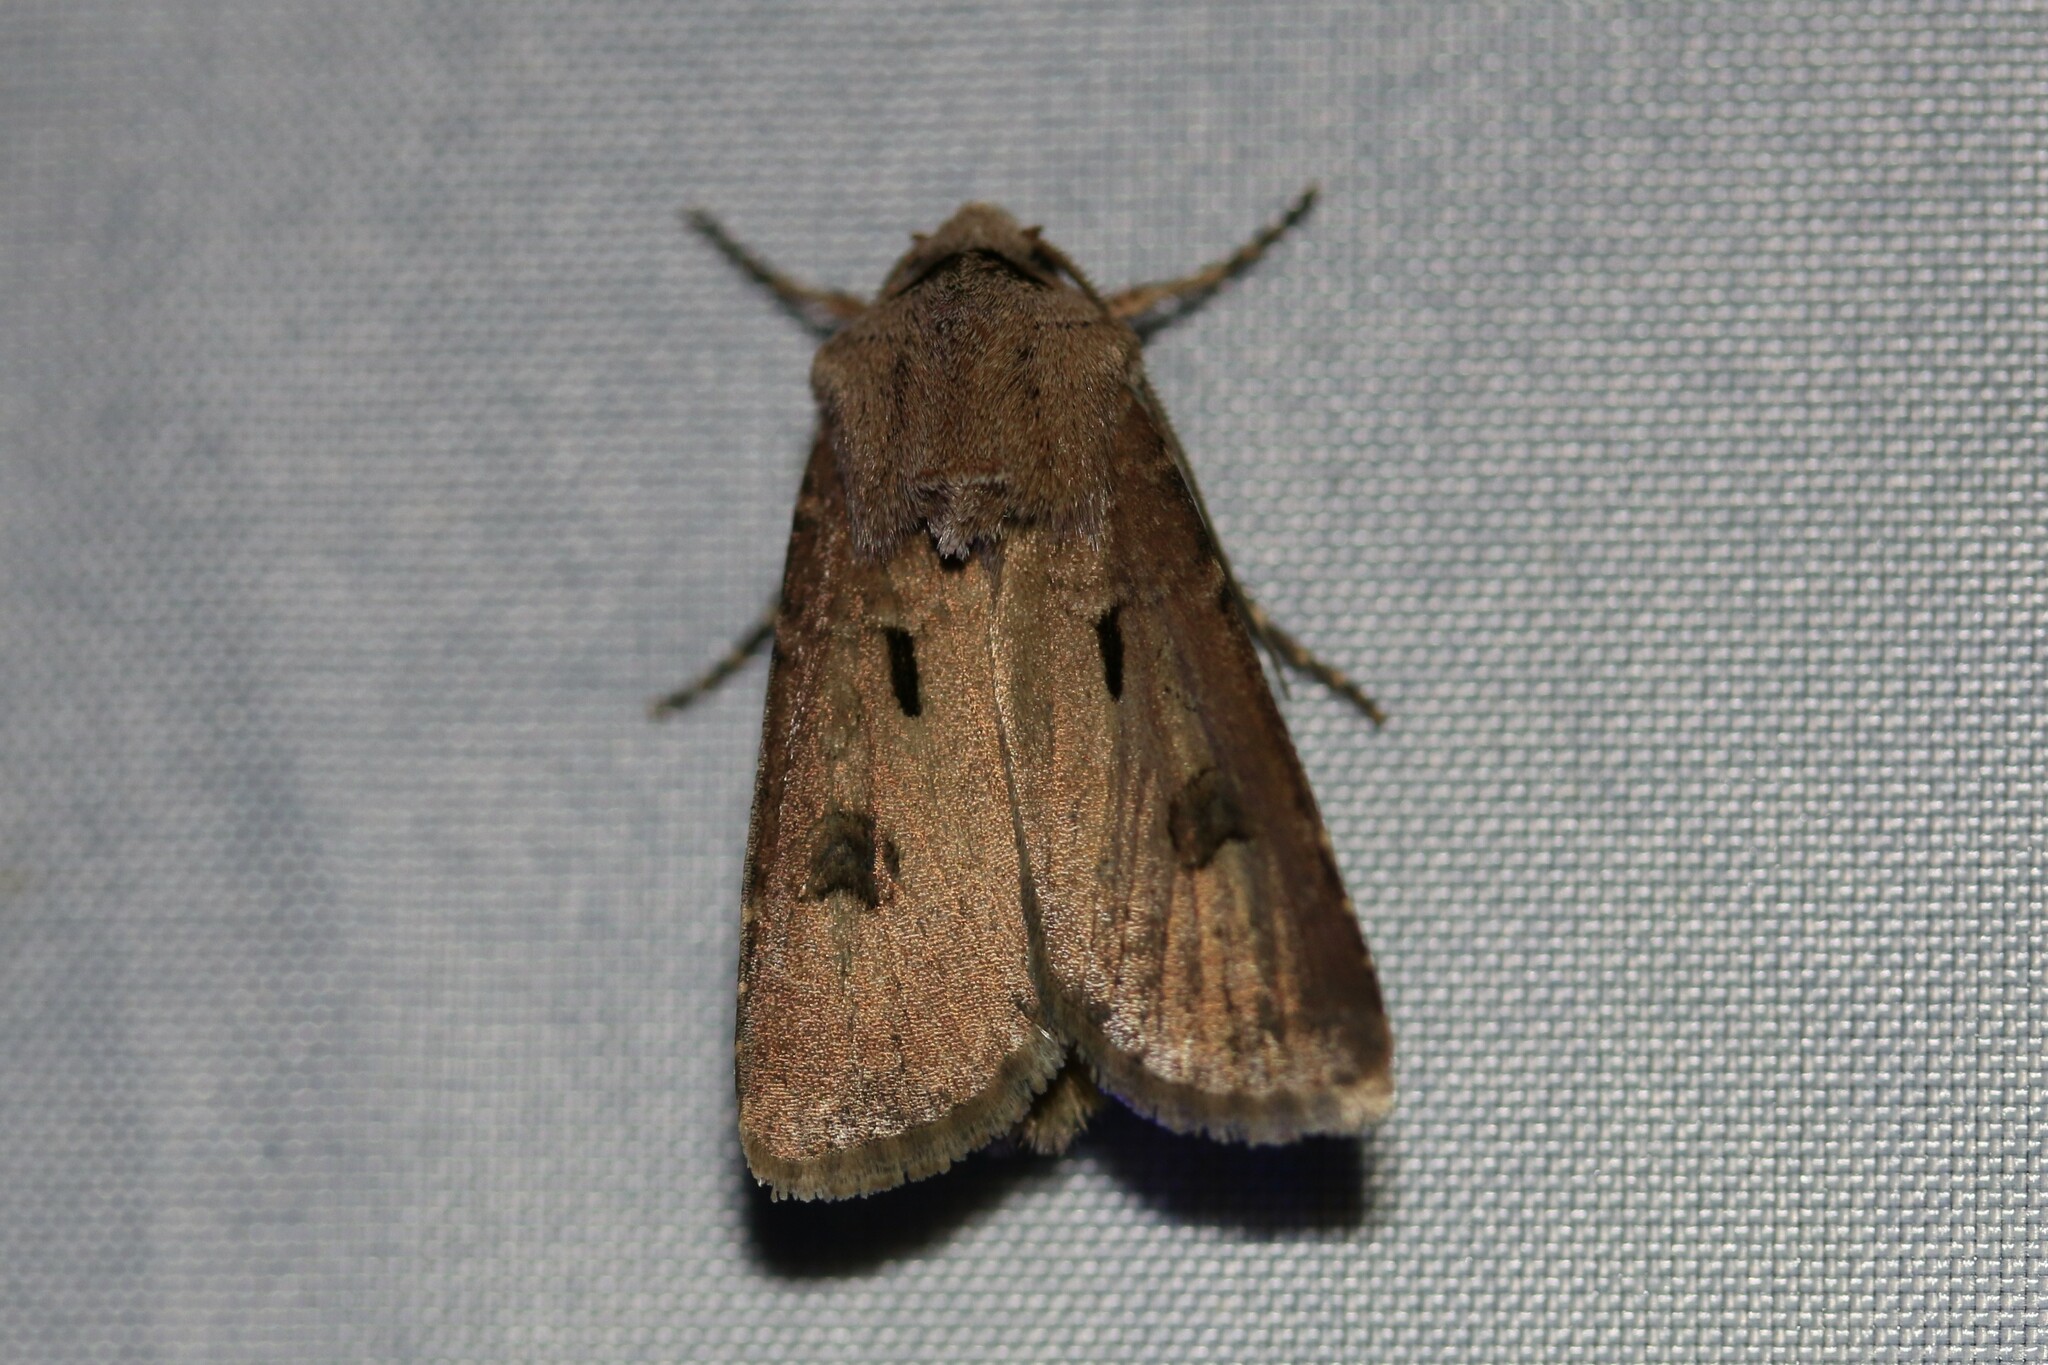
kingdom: Animalia
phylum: Arthropoda
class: Insecta
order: Lepidoptera
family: Noctuidae
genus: Agrotis
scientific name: Agrotis exclamationis
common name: Heart and dart
